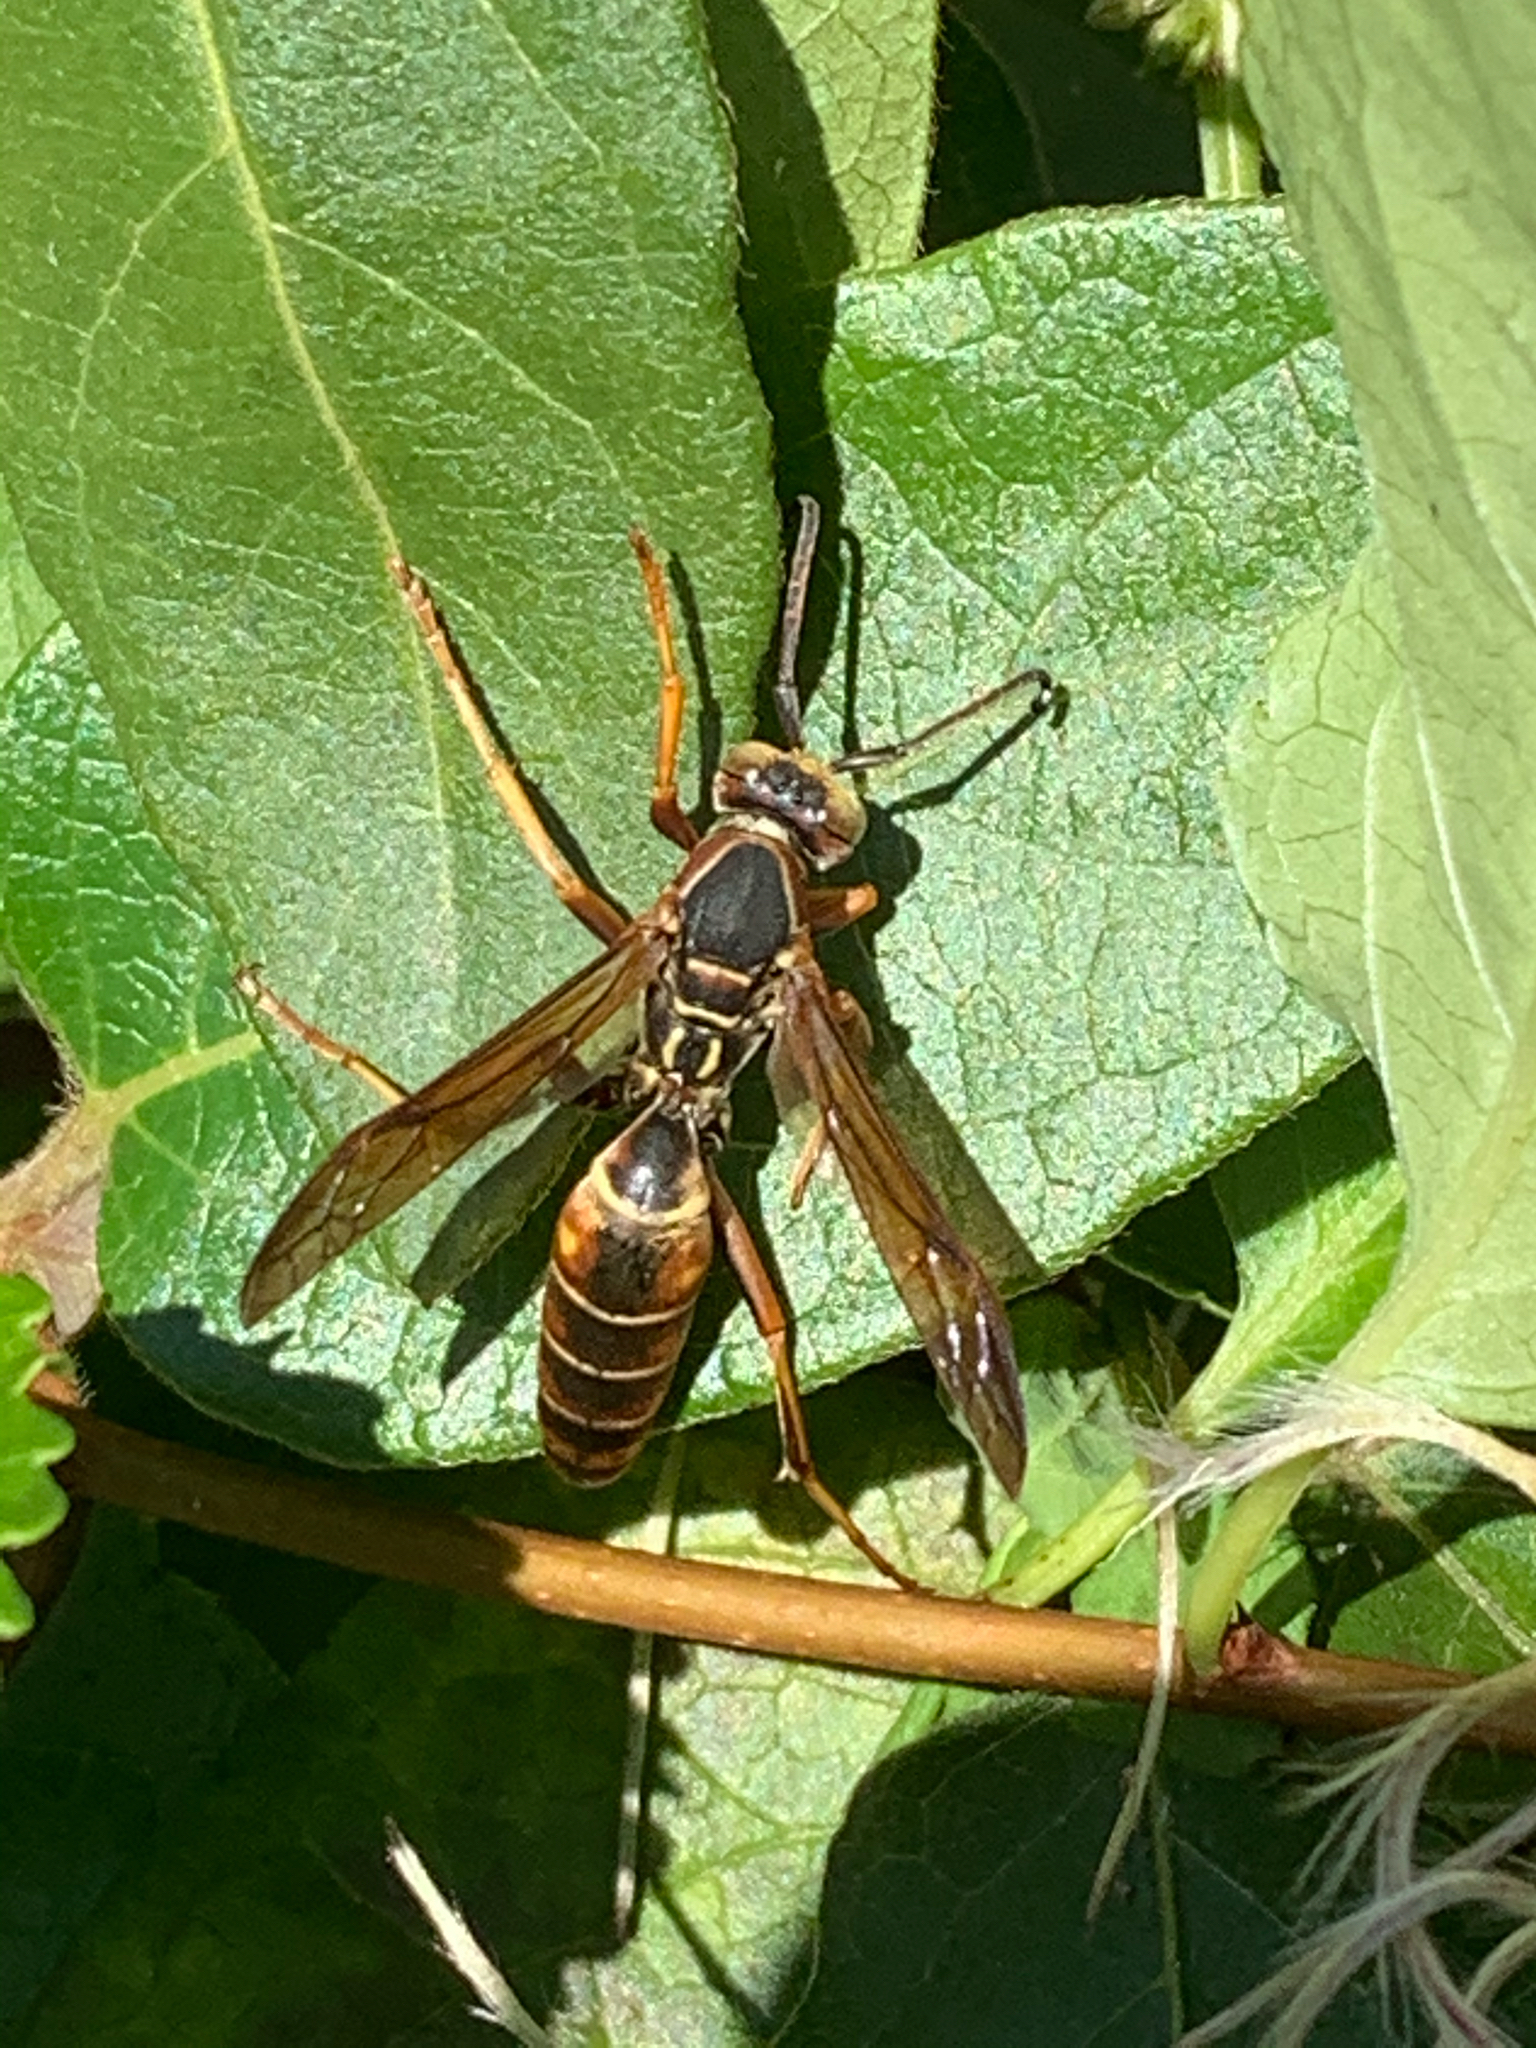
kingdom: Animalia
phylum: Arthropoda
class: Insecta
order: Hymenoptera
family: Eumenidae
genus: Polistes
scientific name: Polistes fuscatus
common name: Dark paper wasp
